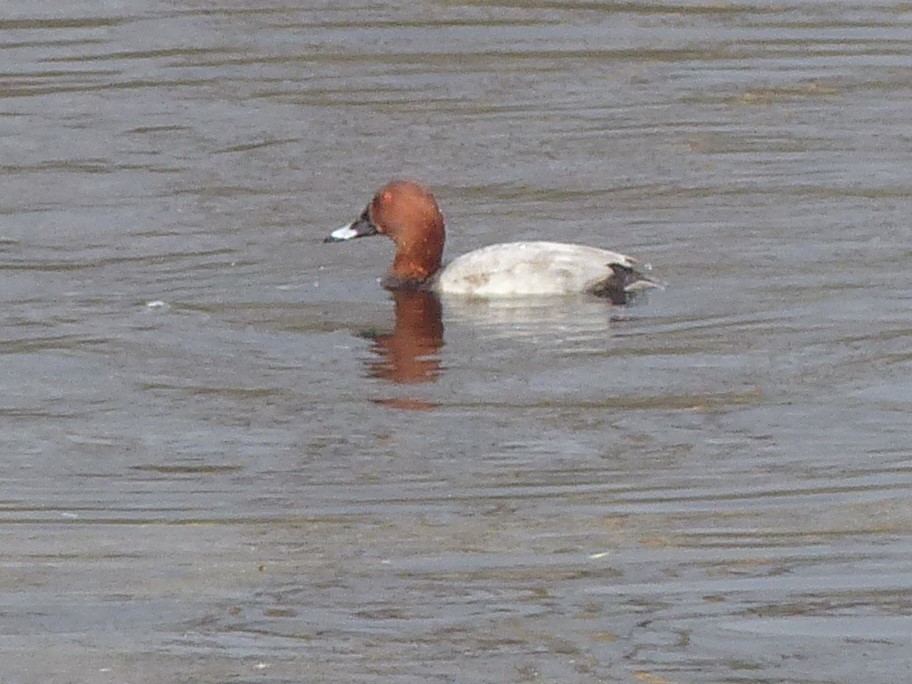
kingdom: Animalia
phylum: Chordata
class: Aves
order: Anseriformes
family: Anatidae
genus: Aythya
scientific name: Aythya ferina
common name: Common pochard
